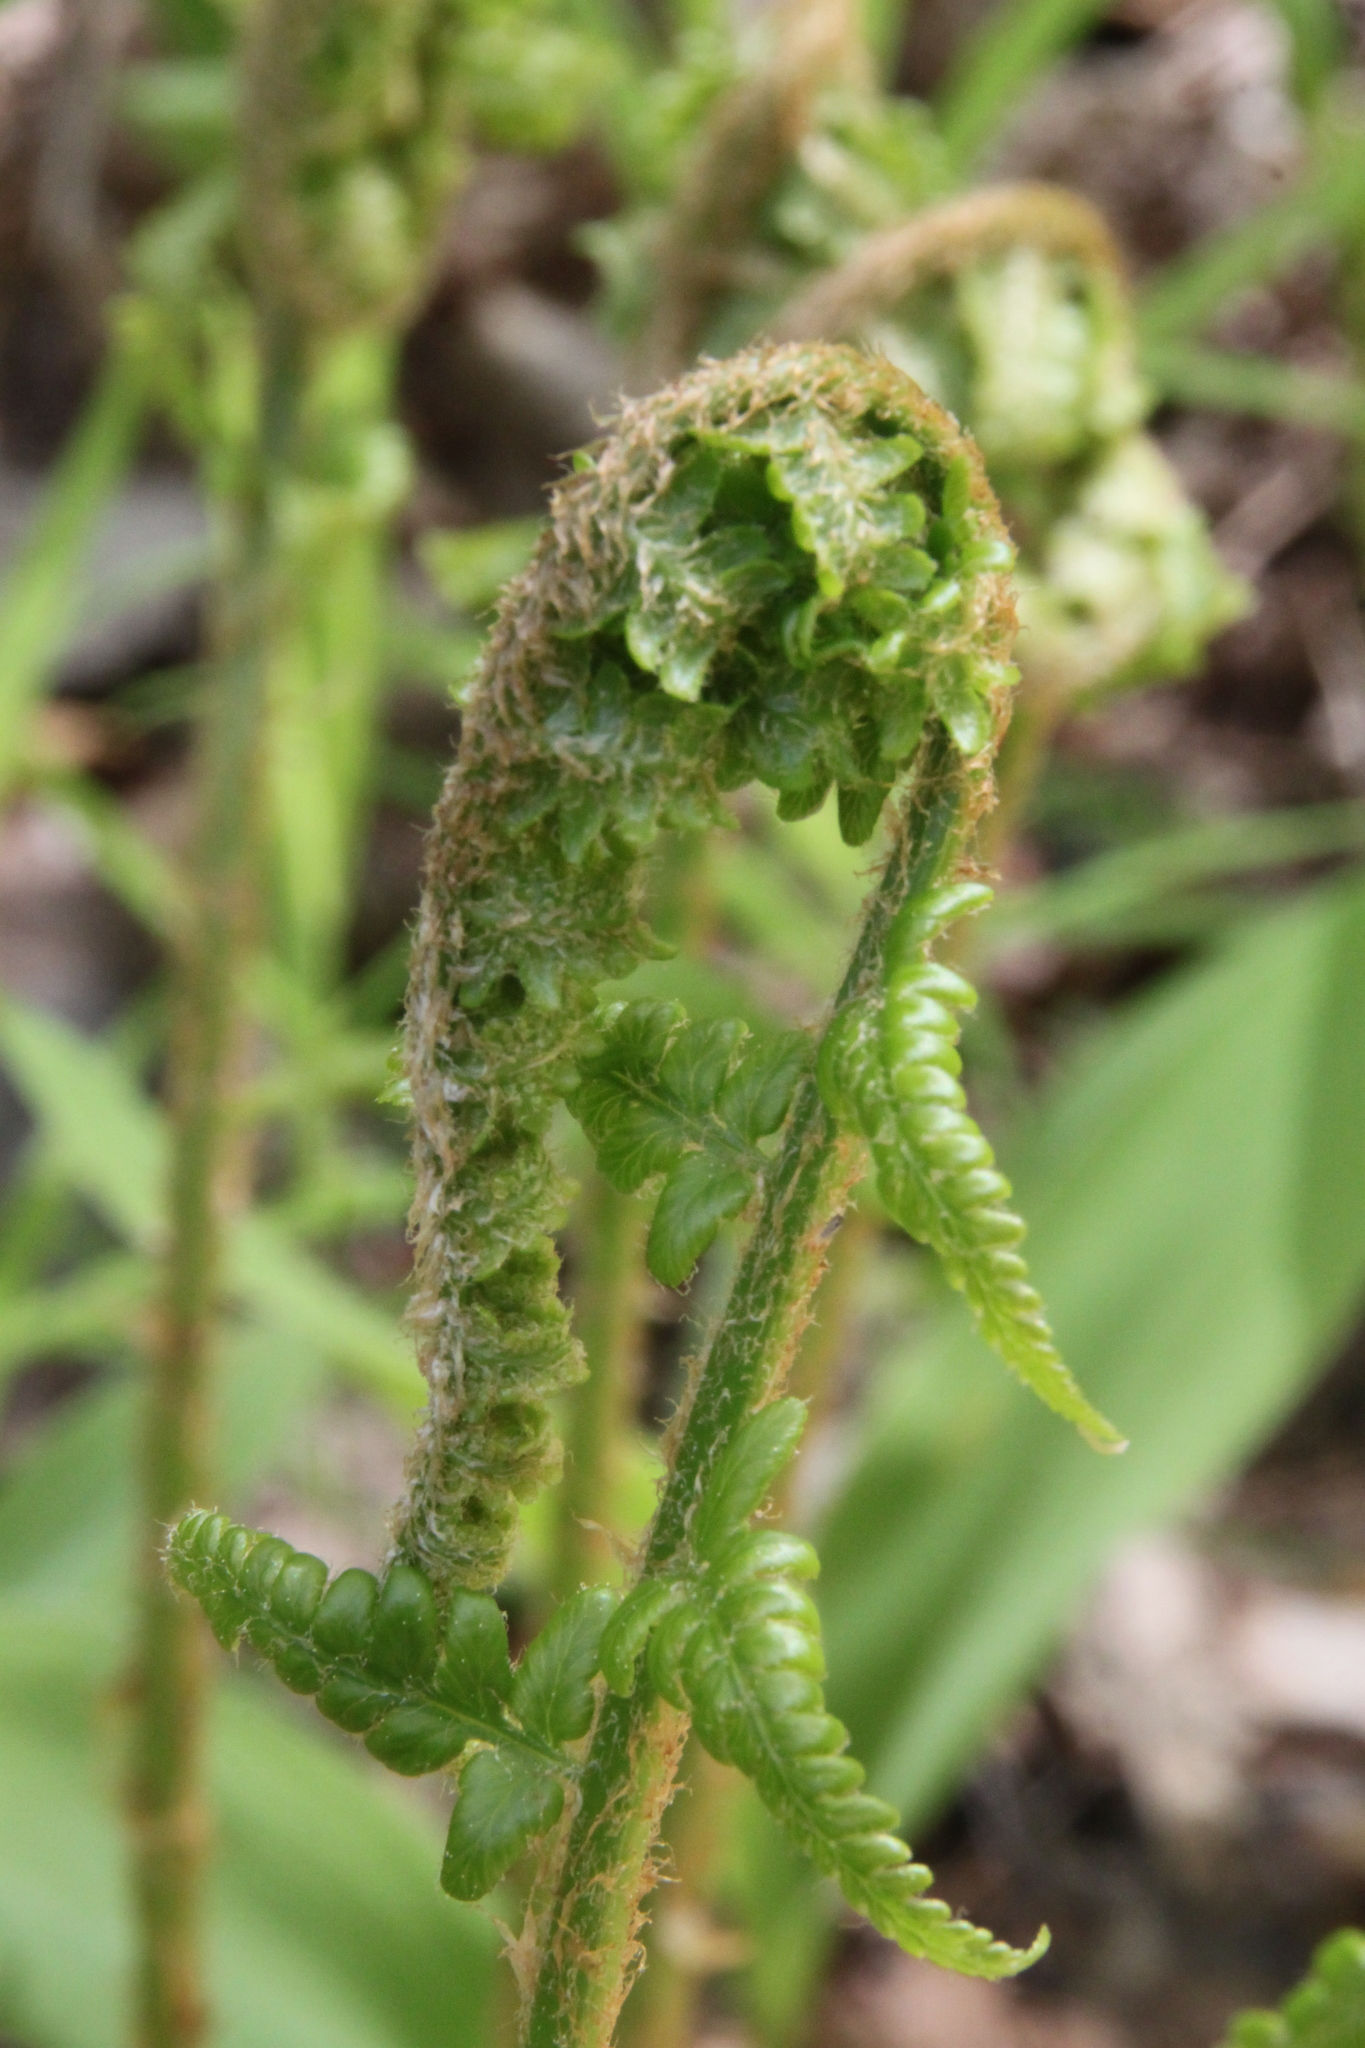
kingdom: Plantae
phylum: Tracheophyta
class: Polypodiopsida
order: Polypodiales
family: Dryopteridaceae
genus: Dryopteris
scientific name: Dryopteris filix-mas
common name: Male fern
